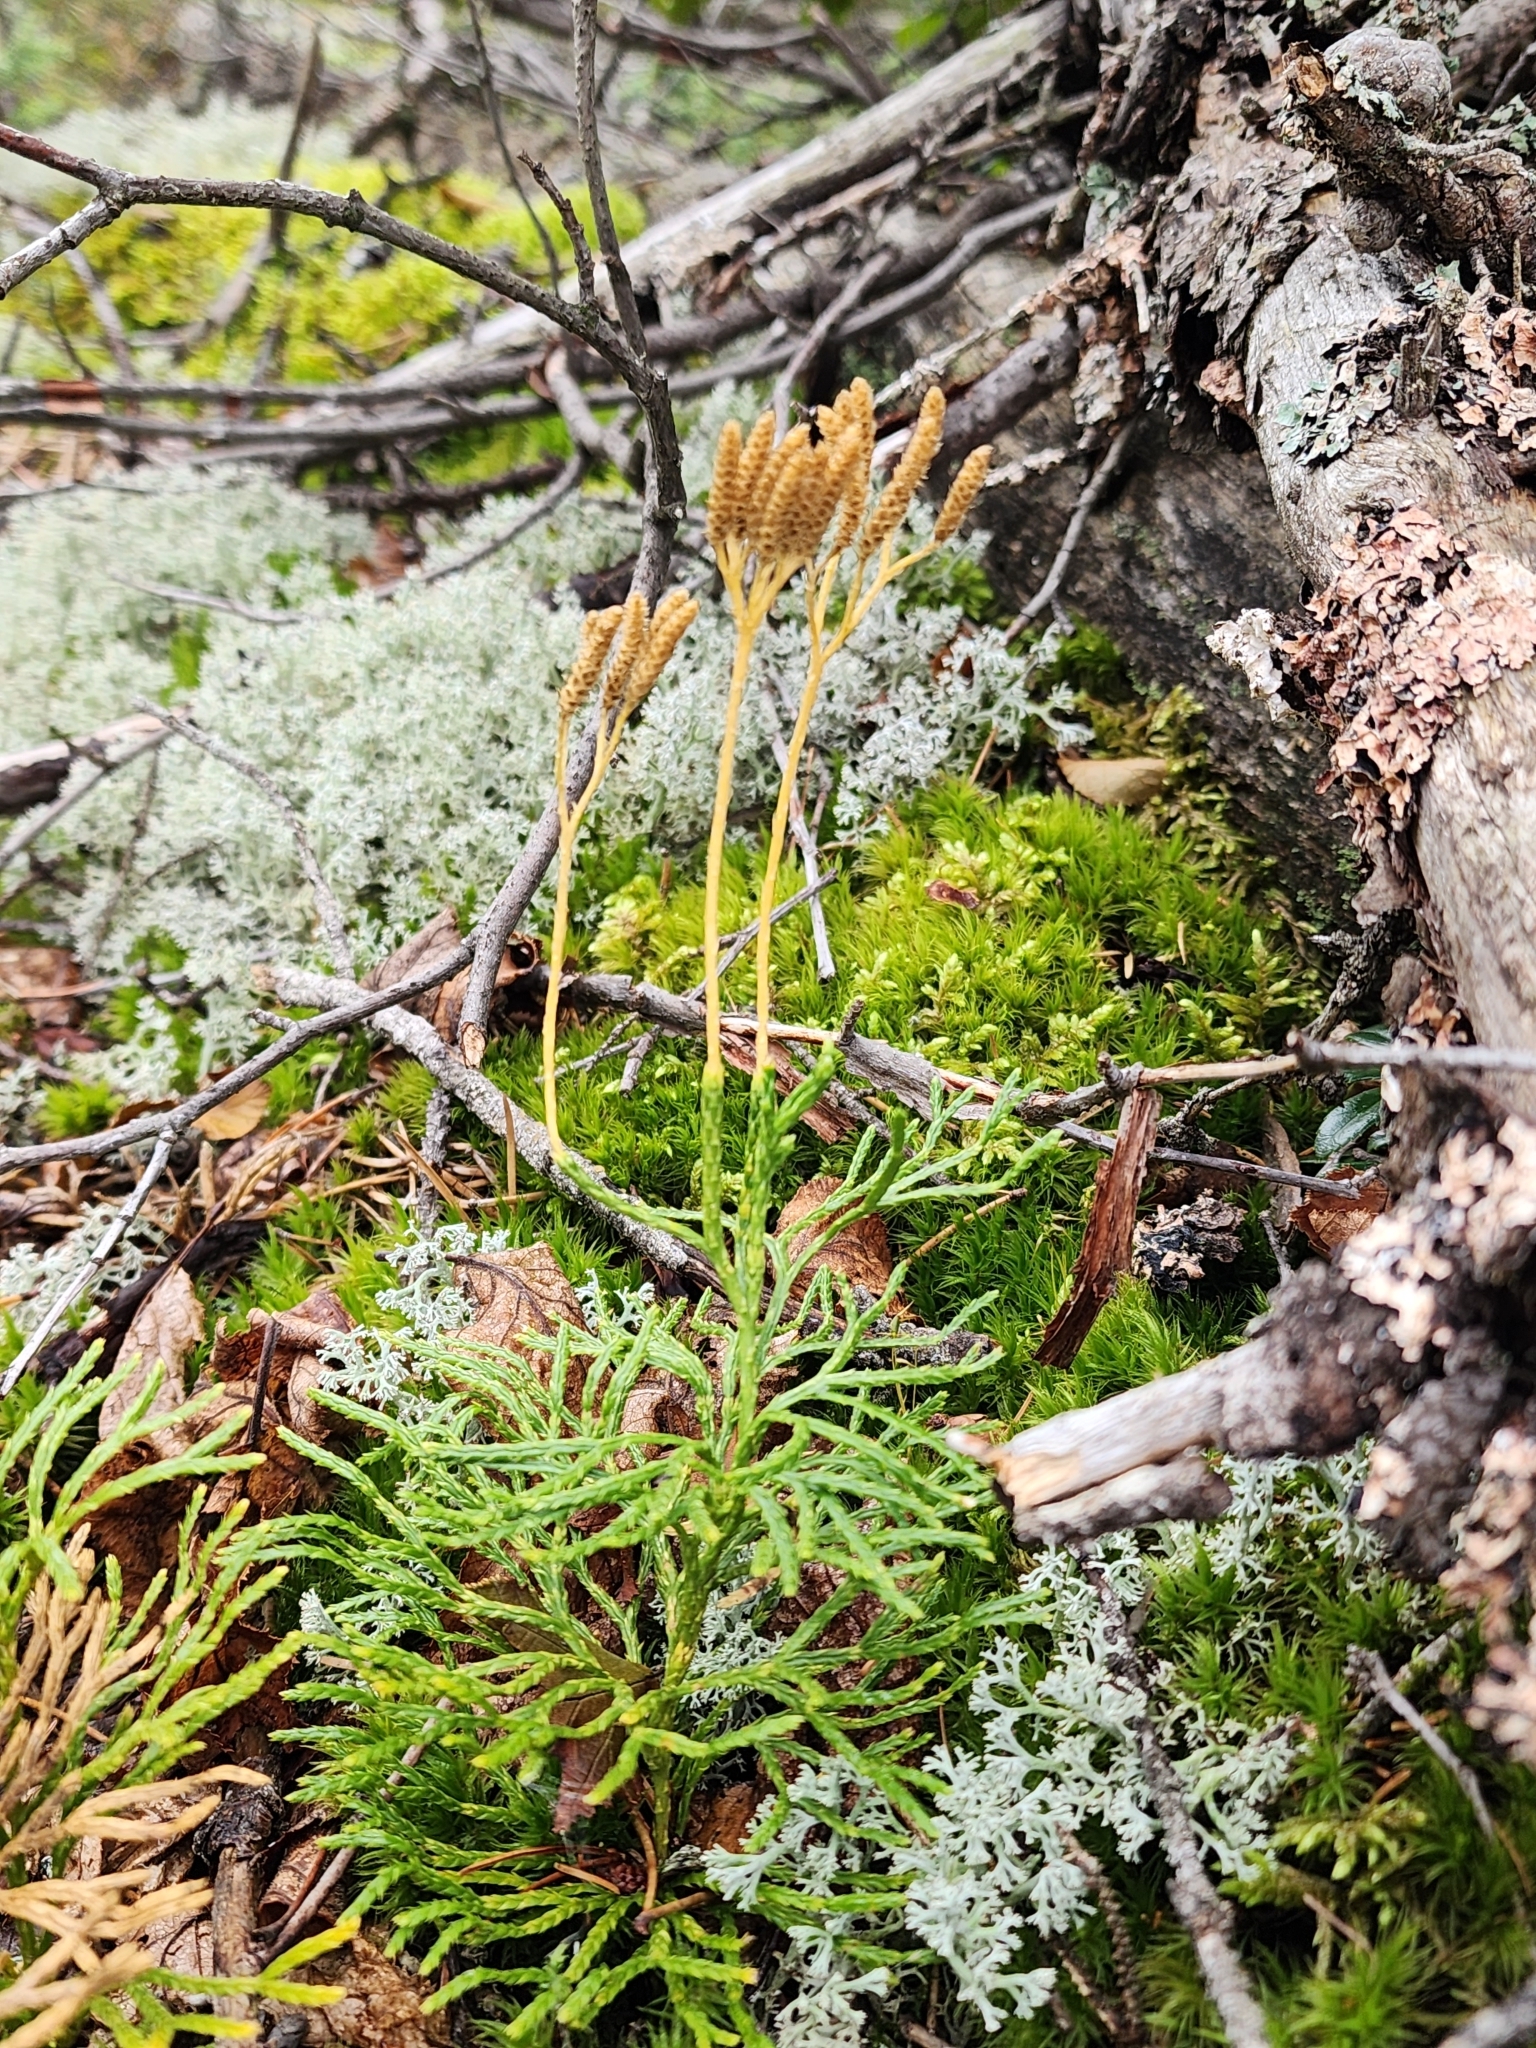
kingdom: Plantae
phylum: Tracheophyta
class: Lycopodiopsida
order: Lycopodiales
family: Lycopodiaceae
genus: Diphasiastrum
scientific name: Diphasiastrum complanatum
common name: Northern running-pine
